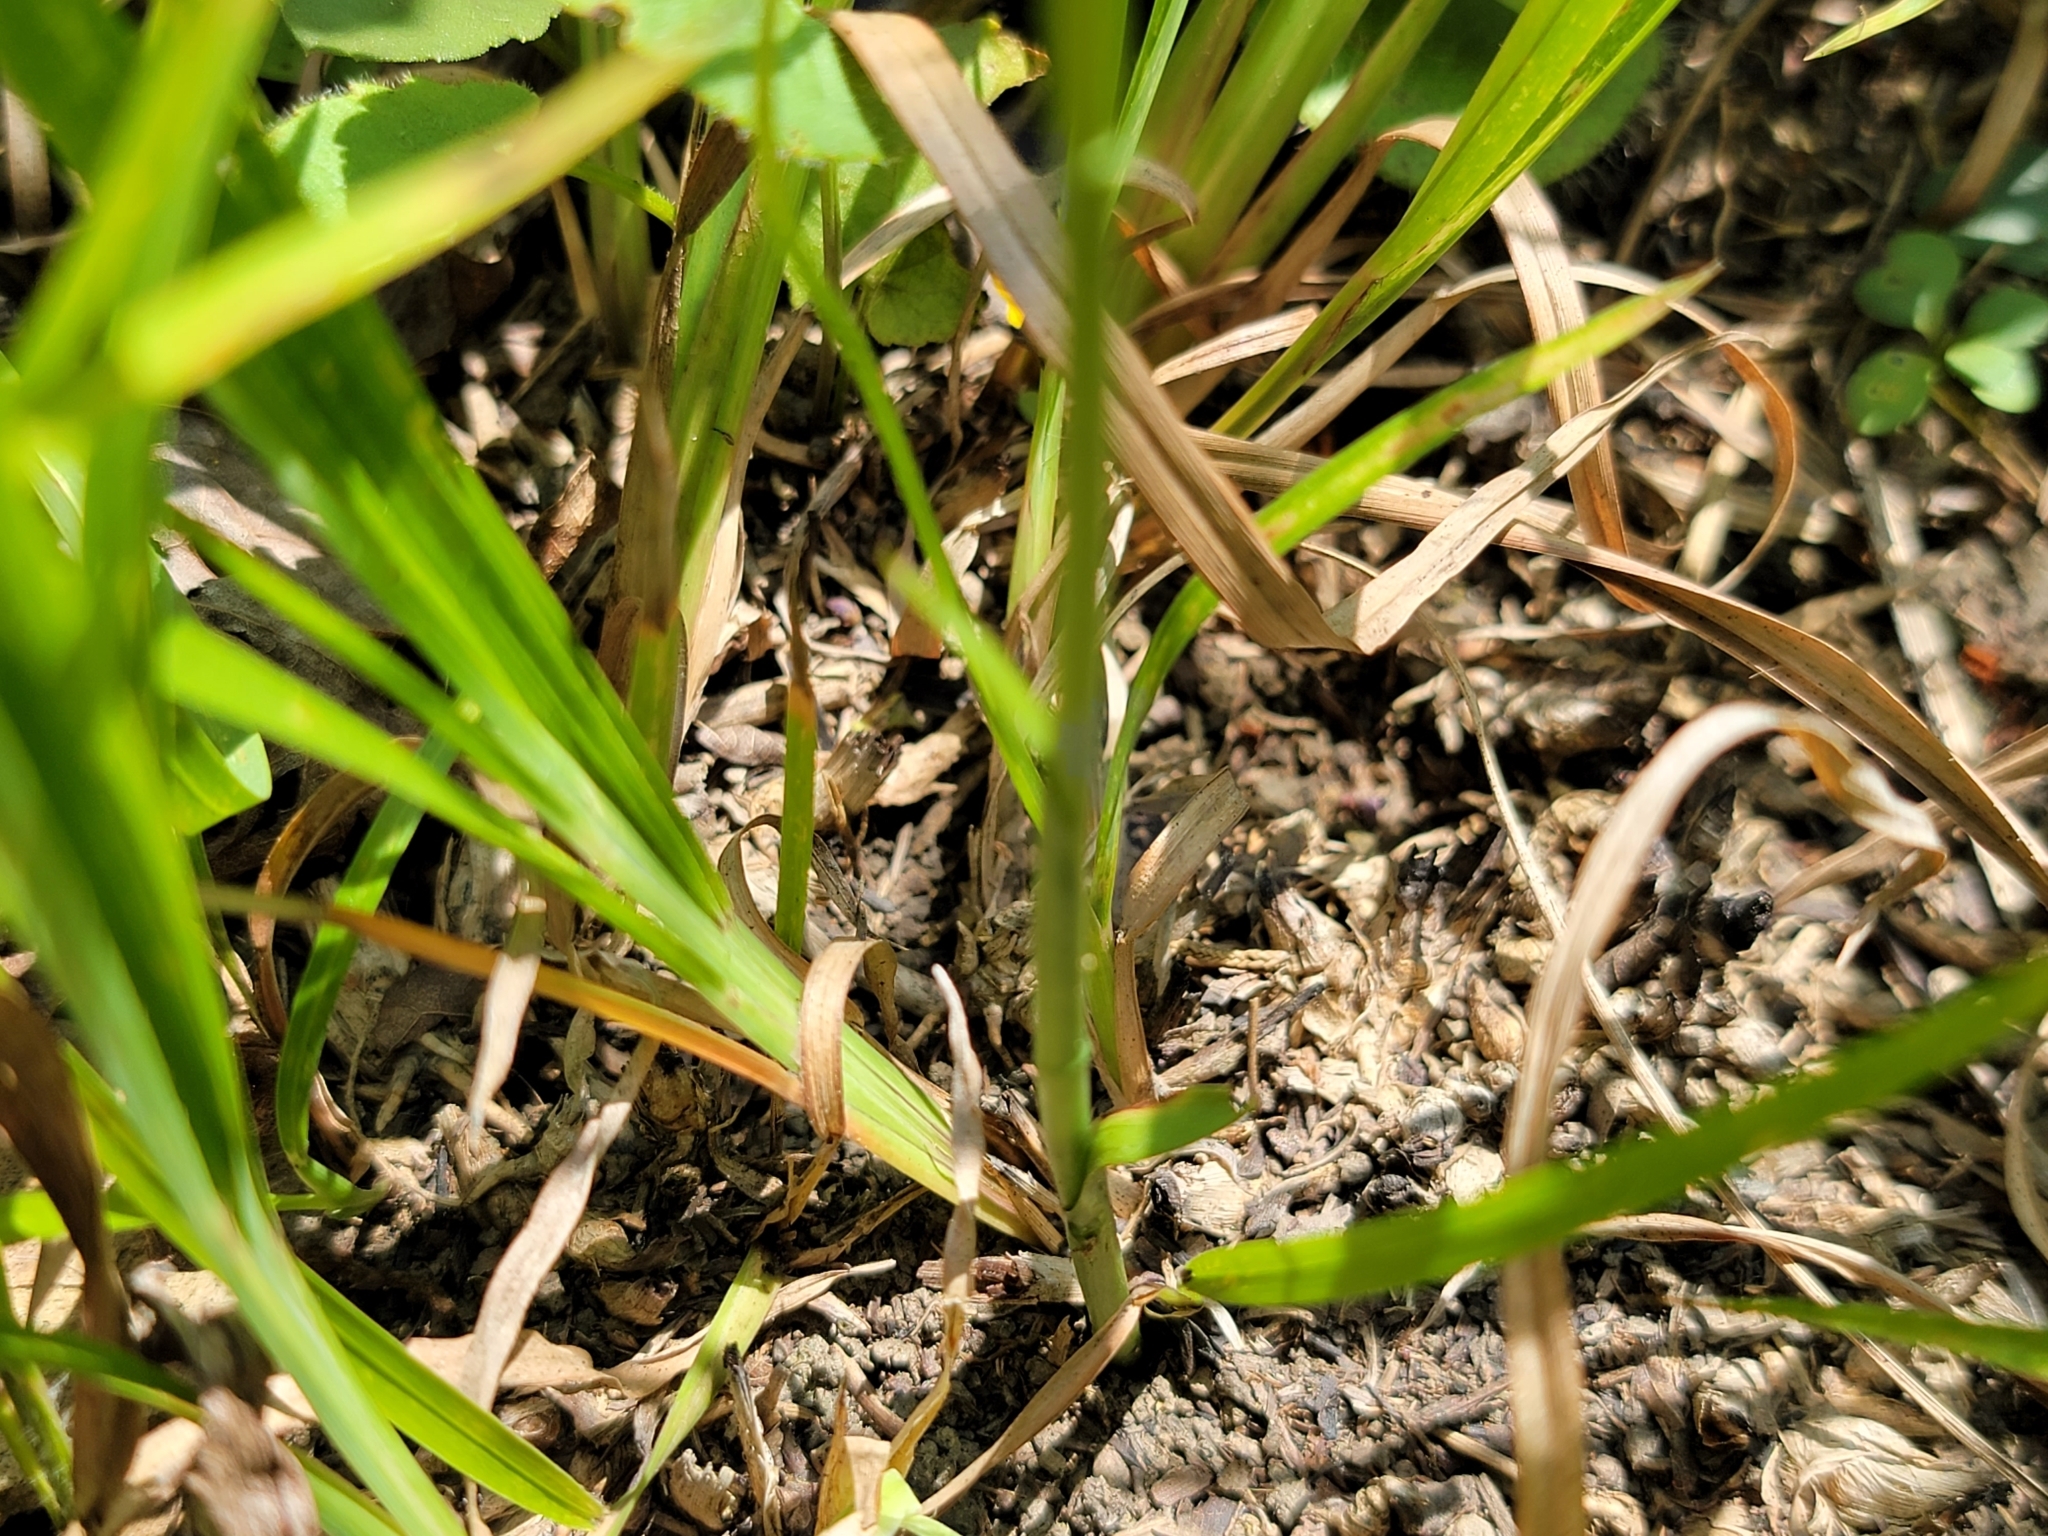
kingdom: Plantae
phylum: Tracheophyta
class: Liliopsida
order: Asparagales
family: Orchidaceae
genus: Spiranthes
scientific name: Spiranthes vernalis
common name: Spring ladies'-tresses
